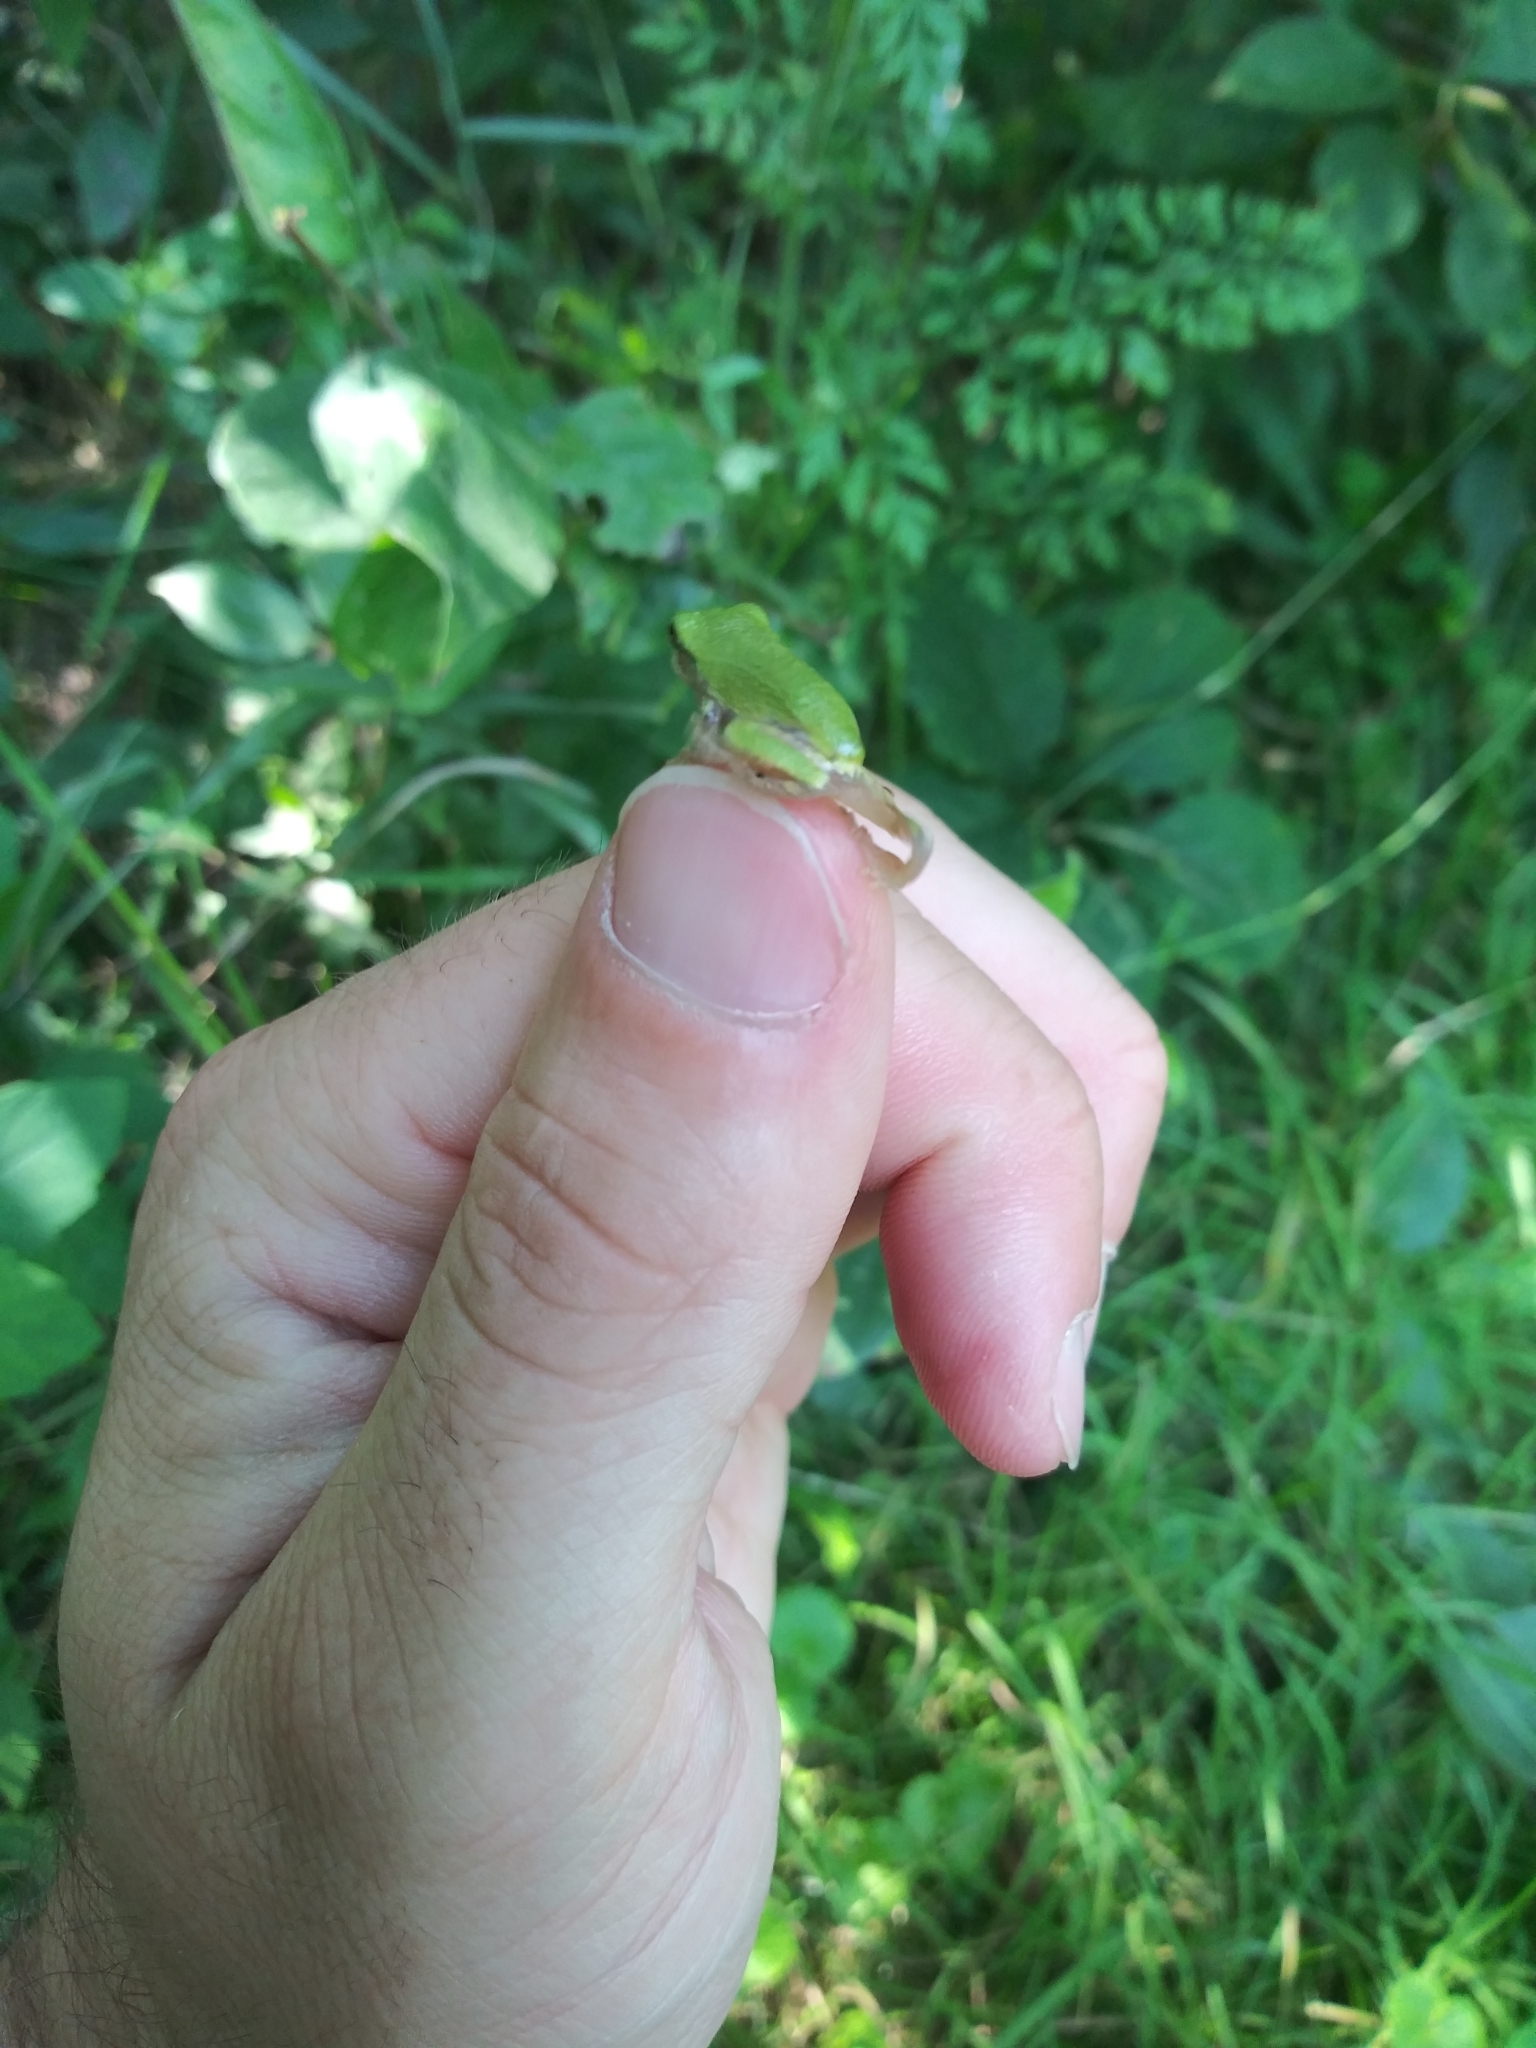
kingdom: Animalia
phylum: Chordata
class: Amphibia
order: Anura
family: Hylidae
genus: Dryophytes
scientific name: Dryophytes versicolor
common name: Gray treefrog
